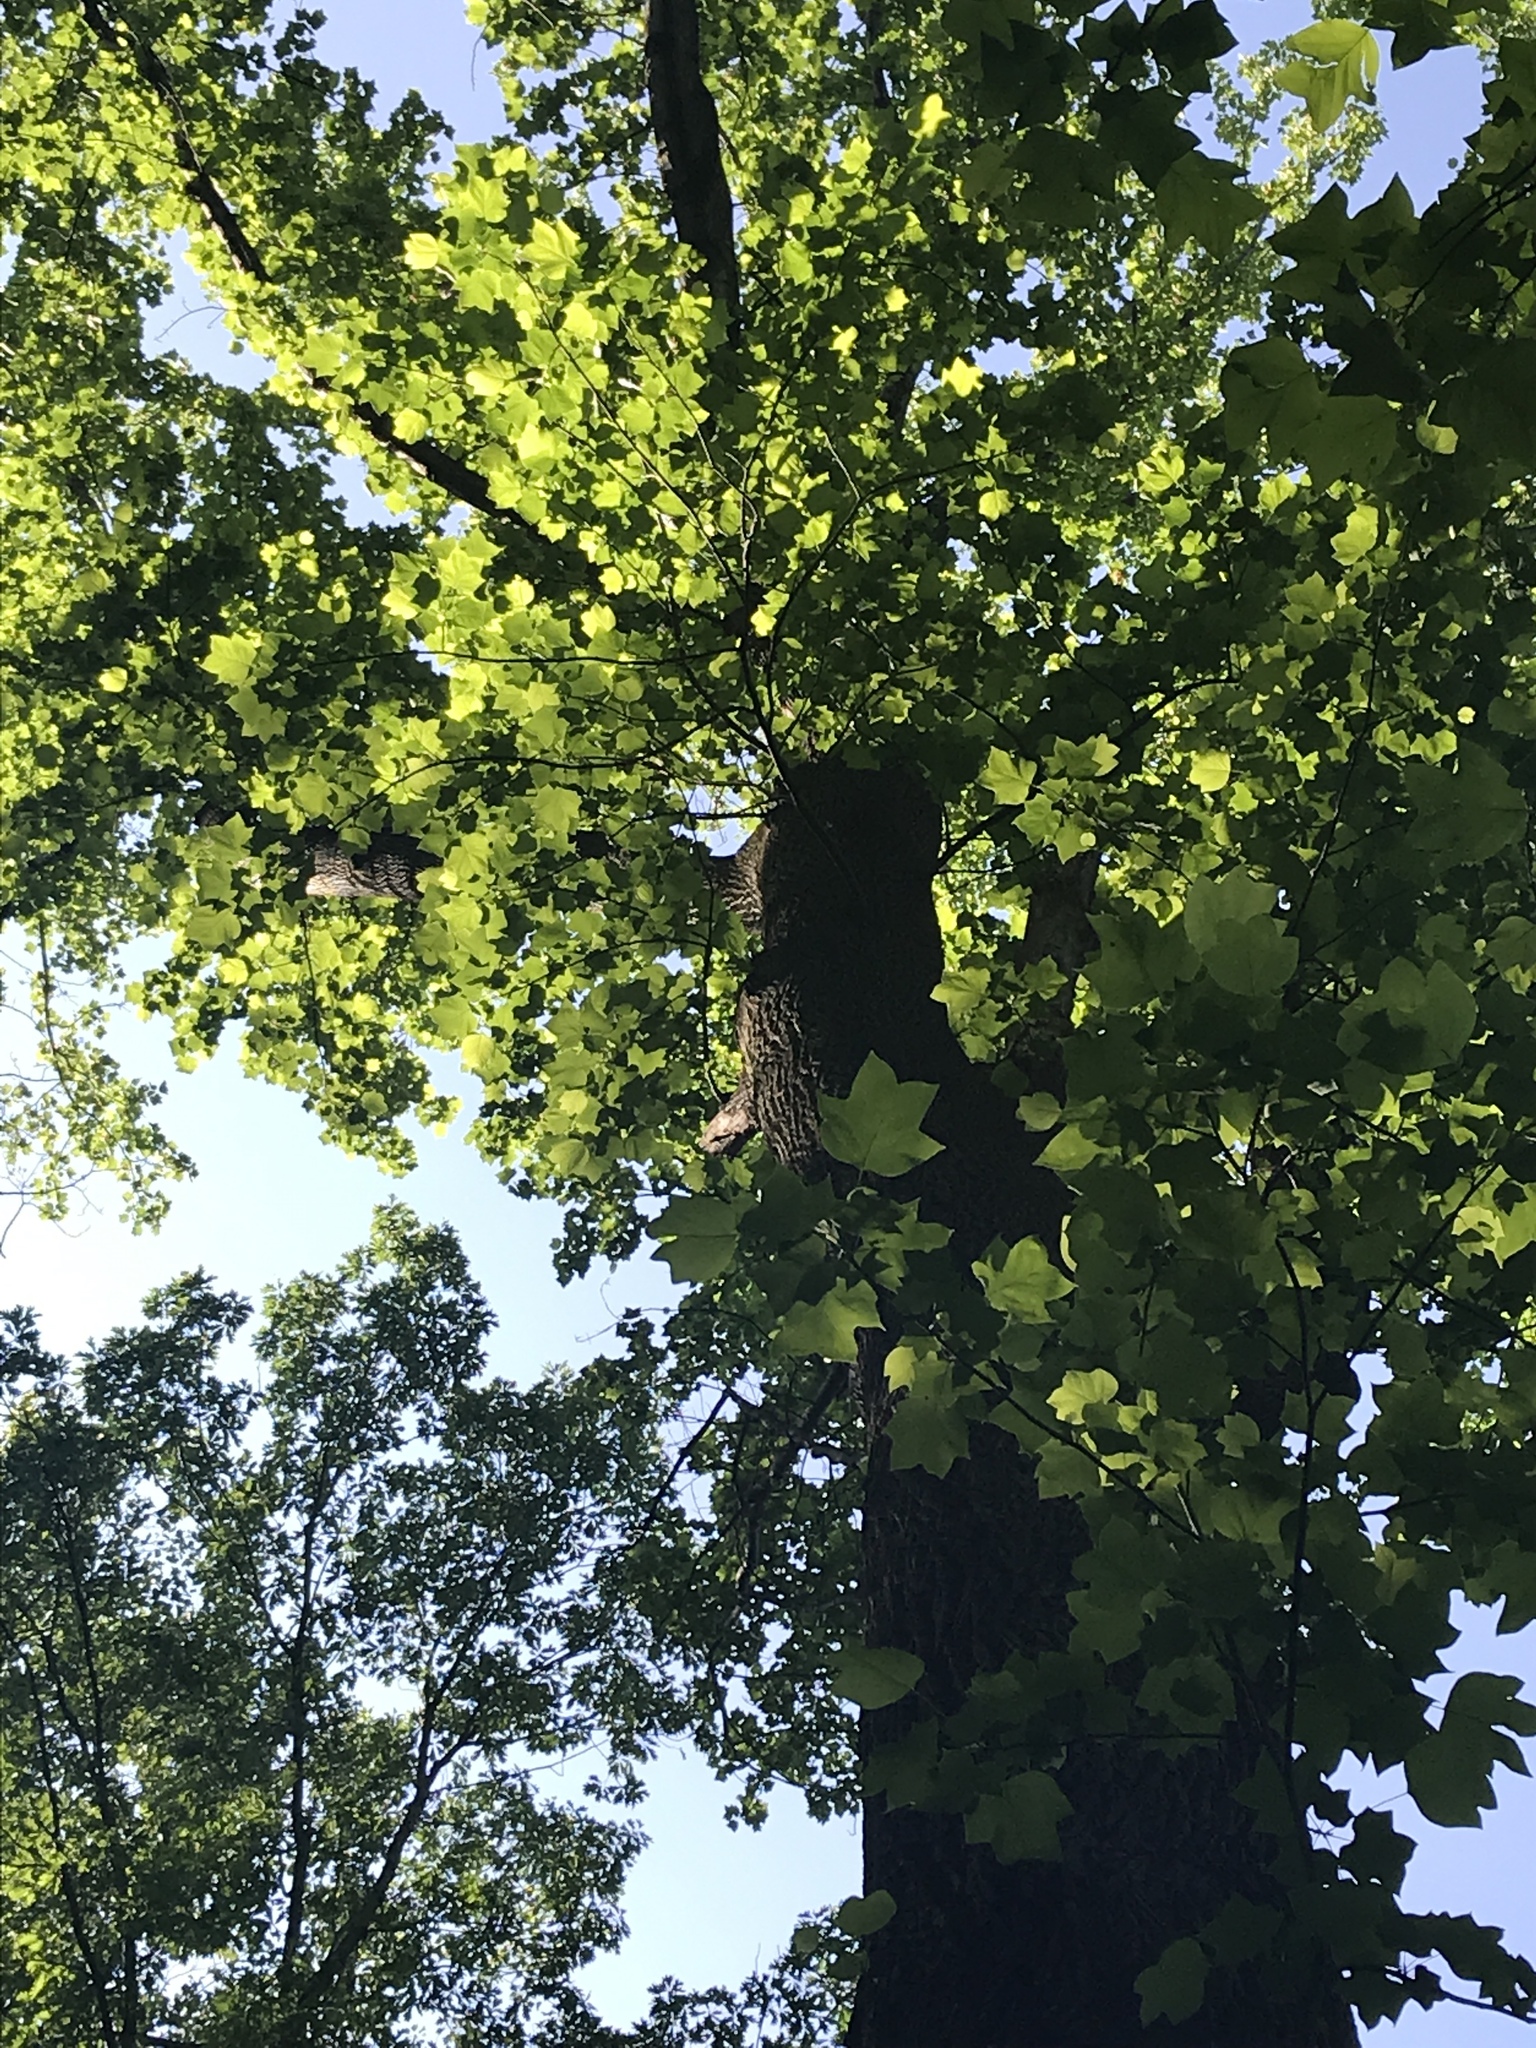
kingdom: Plantae
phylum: Tracheophyta
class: Magnoliopsida
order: Magnoliales
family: Magnoliaceae
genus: Liriodendron
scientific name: Liriodendron tulipifera
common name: Tulip tree
